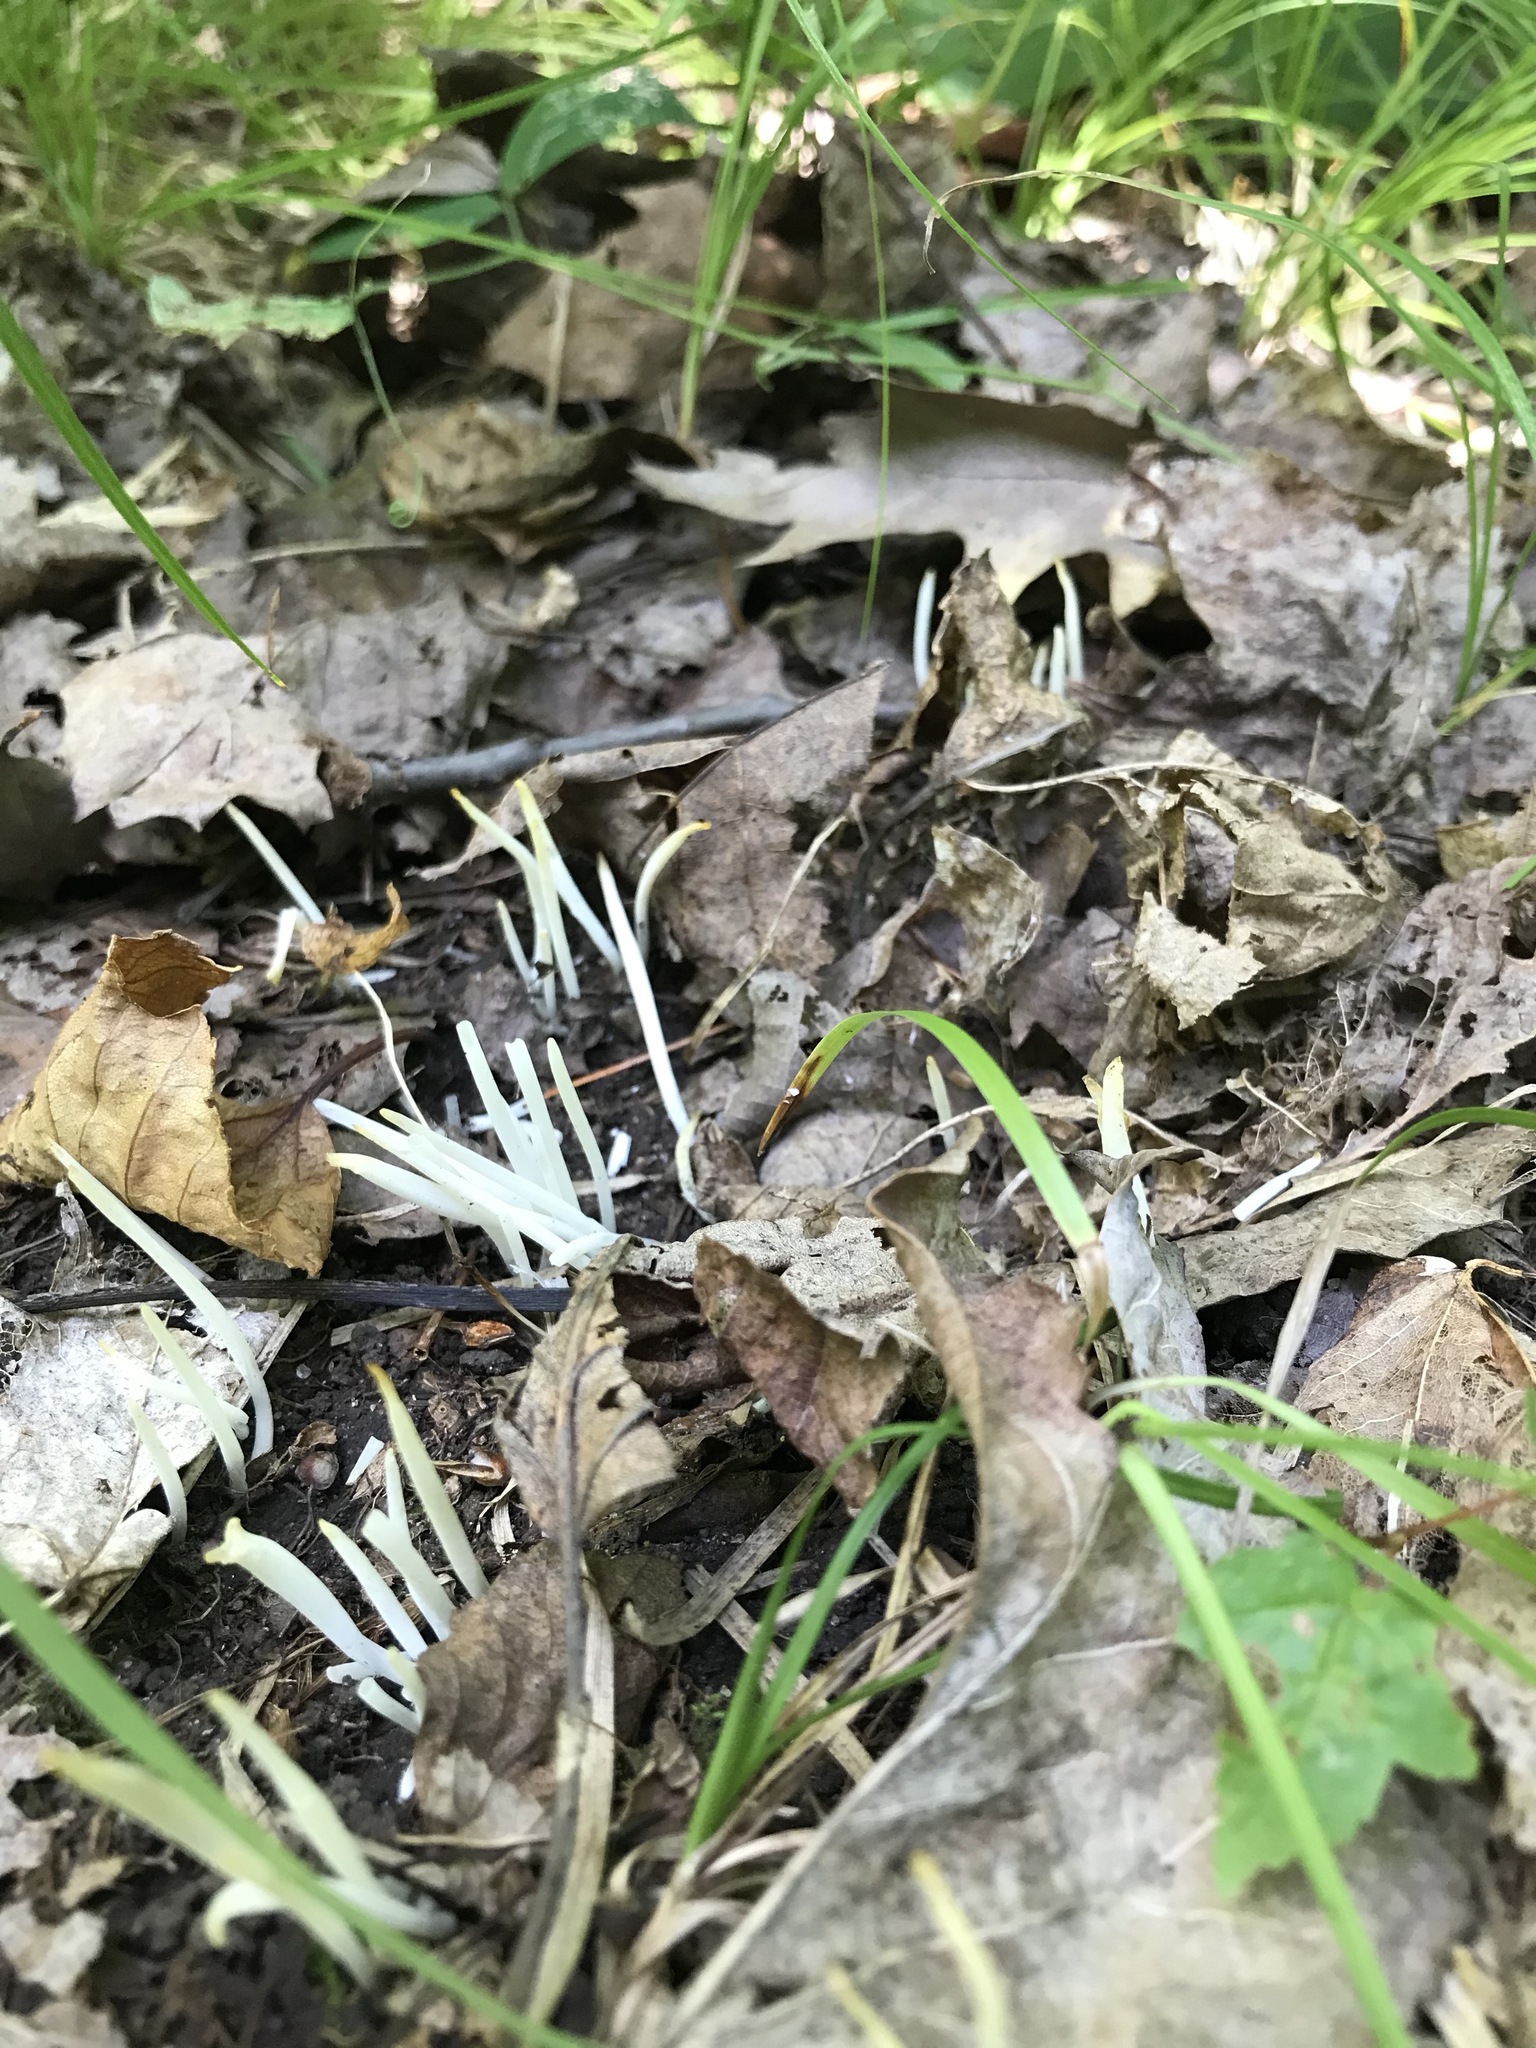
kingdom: Fungi
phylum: Basidiomycota
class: Agaricomycetes
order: Agaricales
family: Clavariaceae
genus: Clavaria
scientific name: Clavaria fragilis
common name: White spindles
